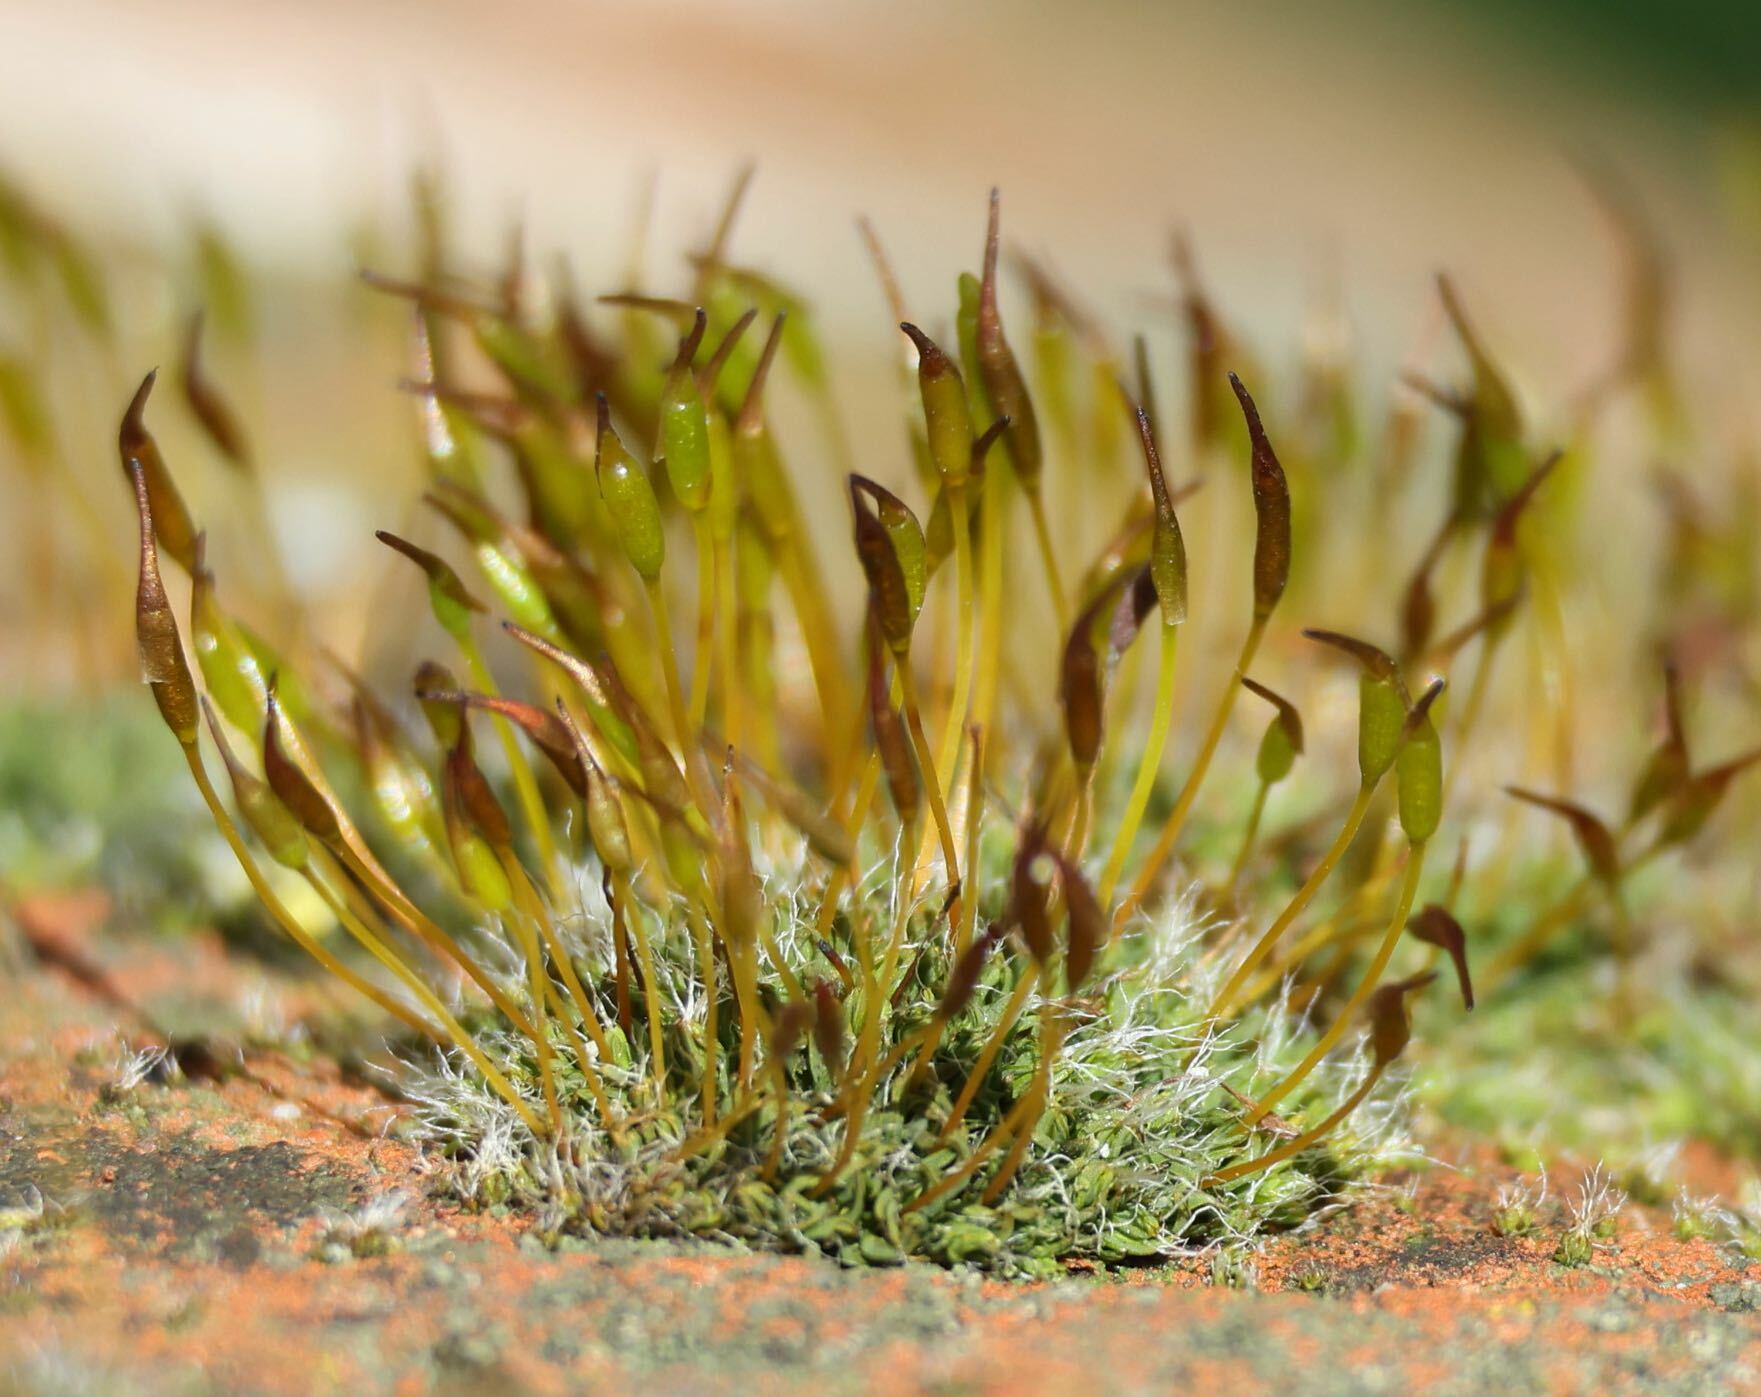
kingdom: Plantae
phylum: Bryophyta
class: Bryopsida
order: Pottiales
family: Pottiaceae
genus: Tortula
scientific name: Tortula muralis
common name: Wall screw-moss
